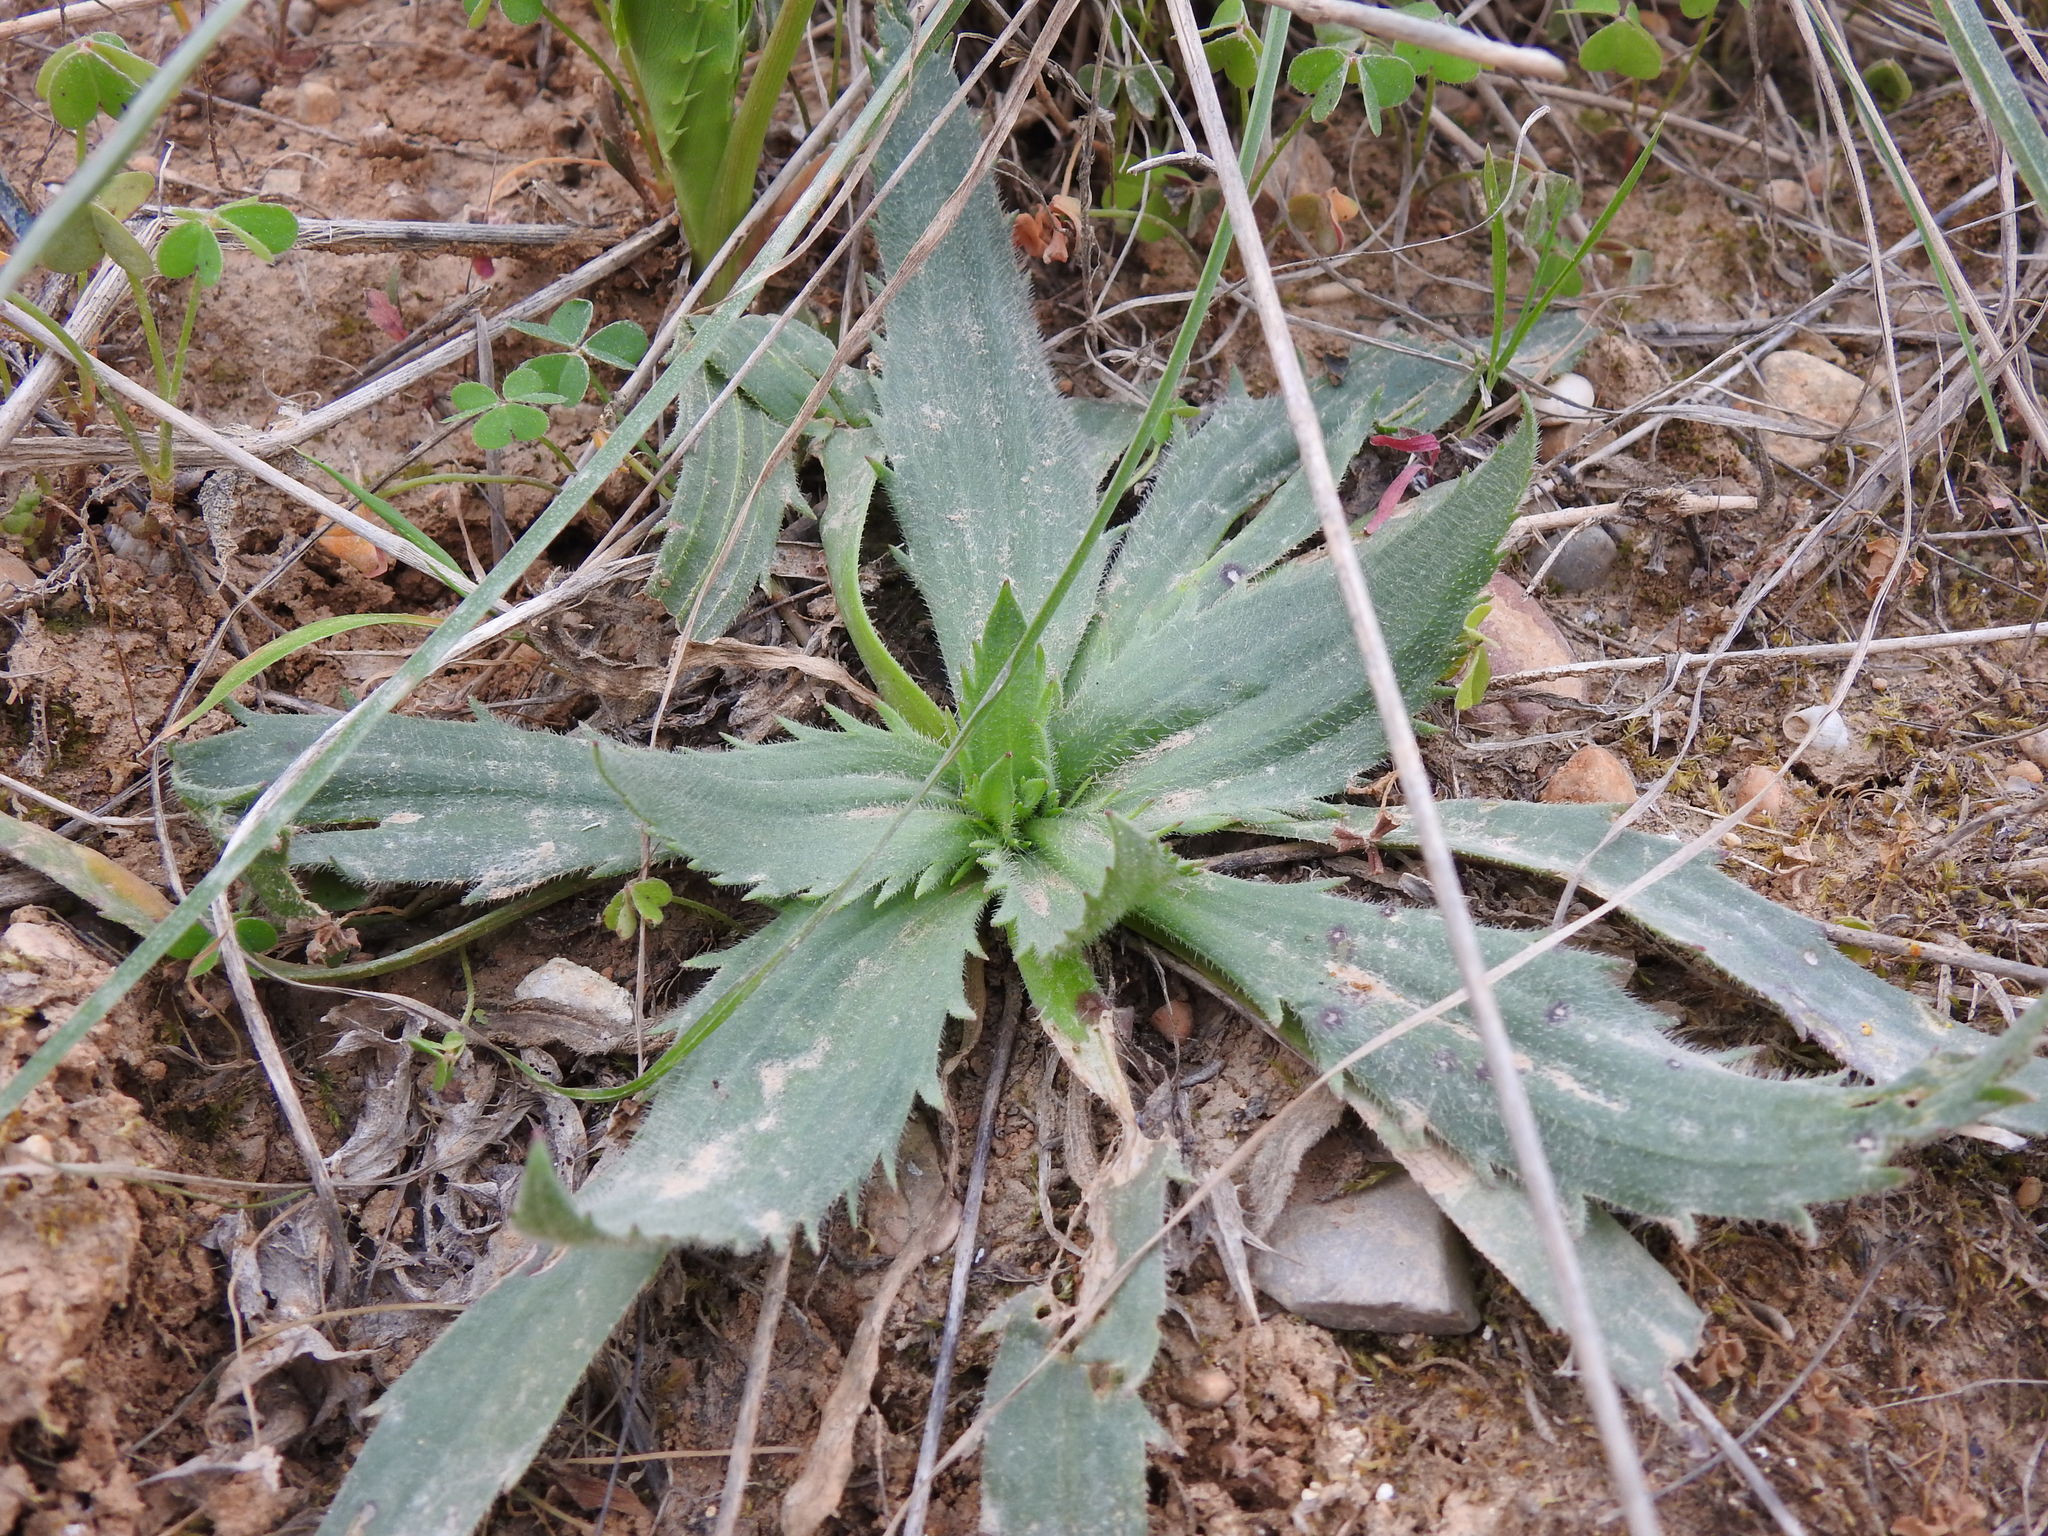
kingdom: Plantae
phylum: Tracheophyta
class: Magnoliopsida
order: Lamiales
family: Plantaginaceae
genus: Plantago
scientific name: Plantago serraria
